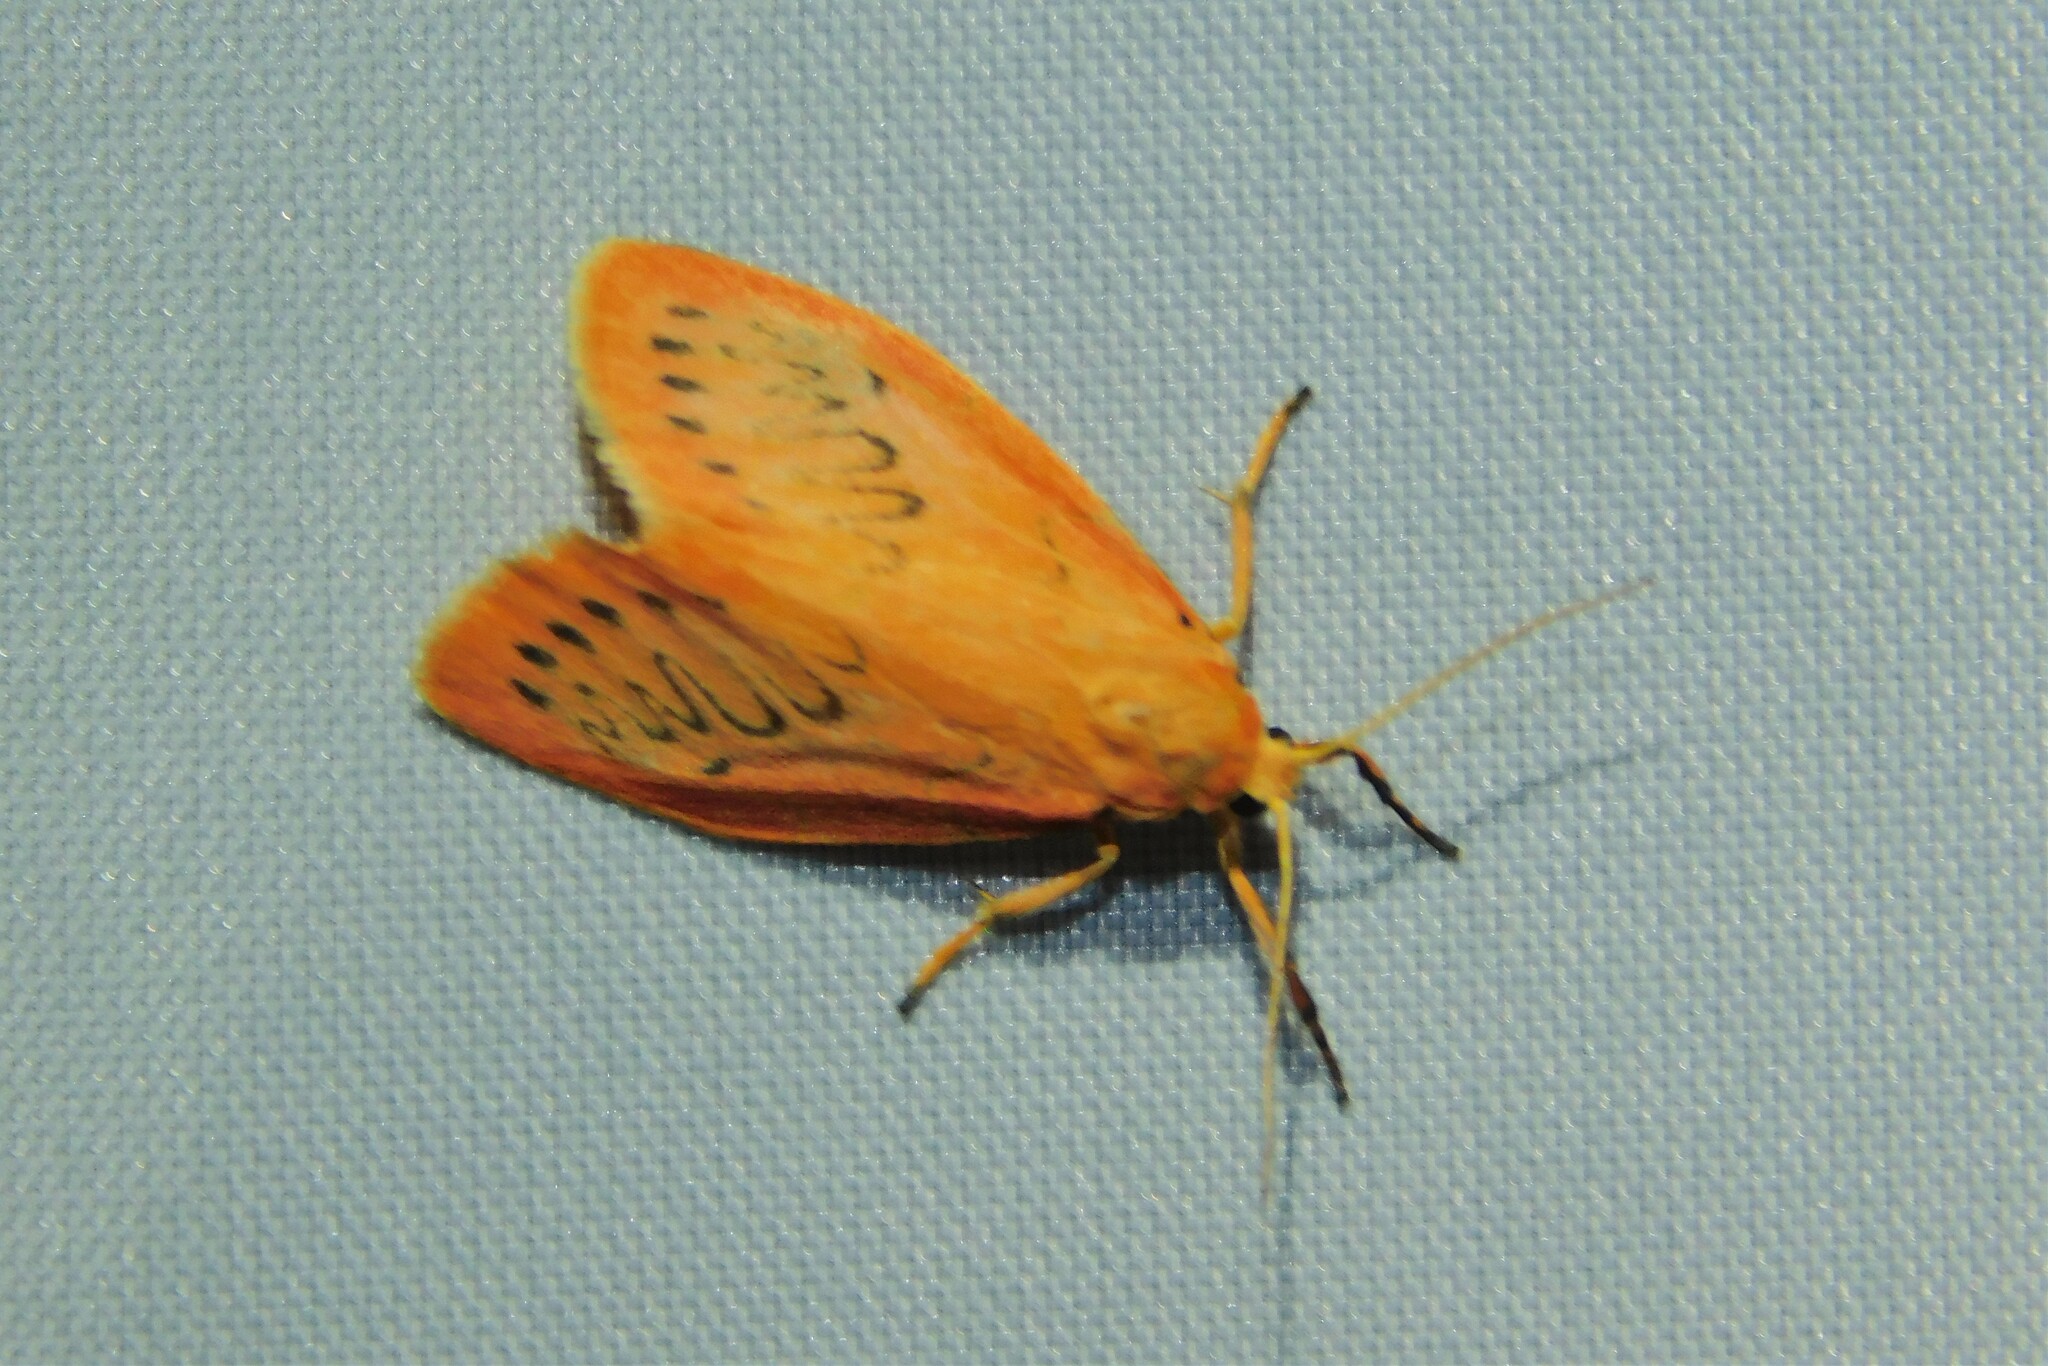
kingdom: Animalia
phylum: Arthropoda
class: Insecta
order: Lepidoptera
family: Erebidae
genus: Miltochrista
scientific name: Miltochrista miniata
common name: Rosy footman
